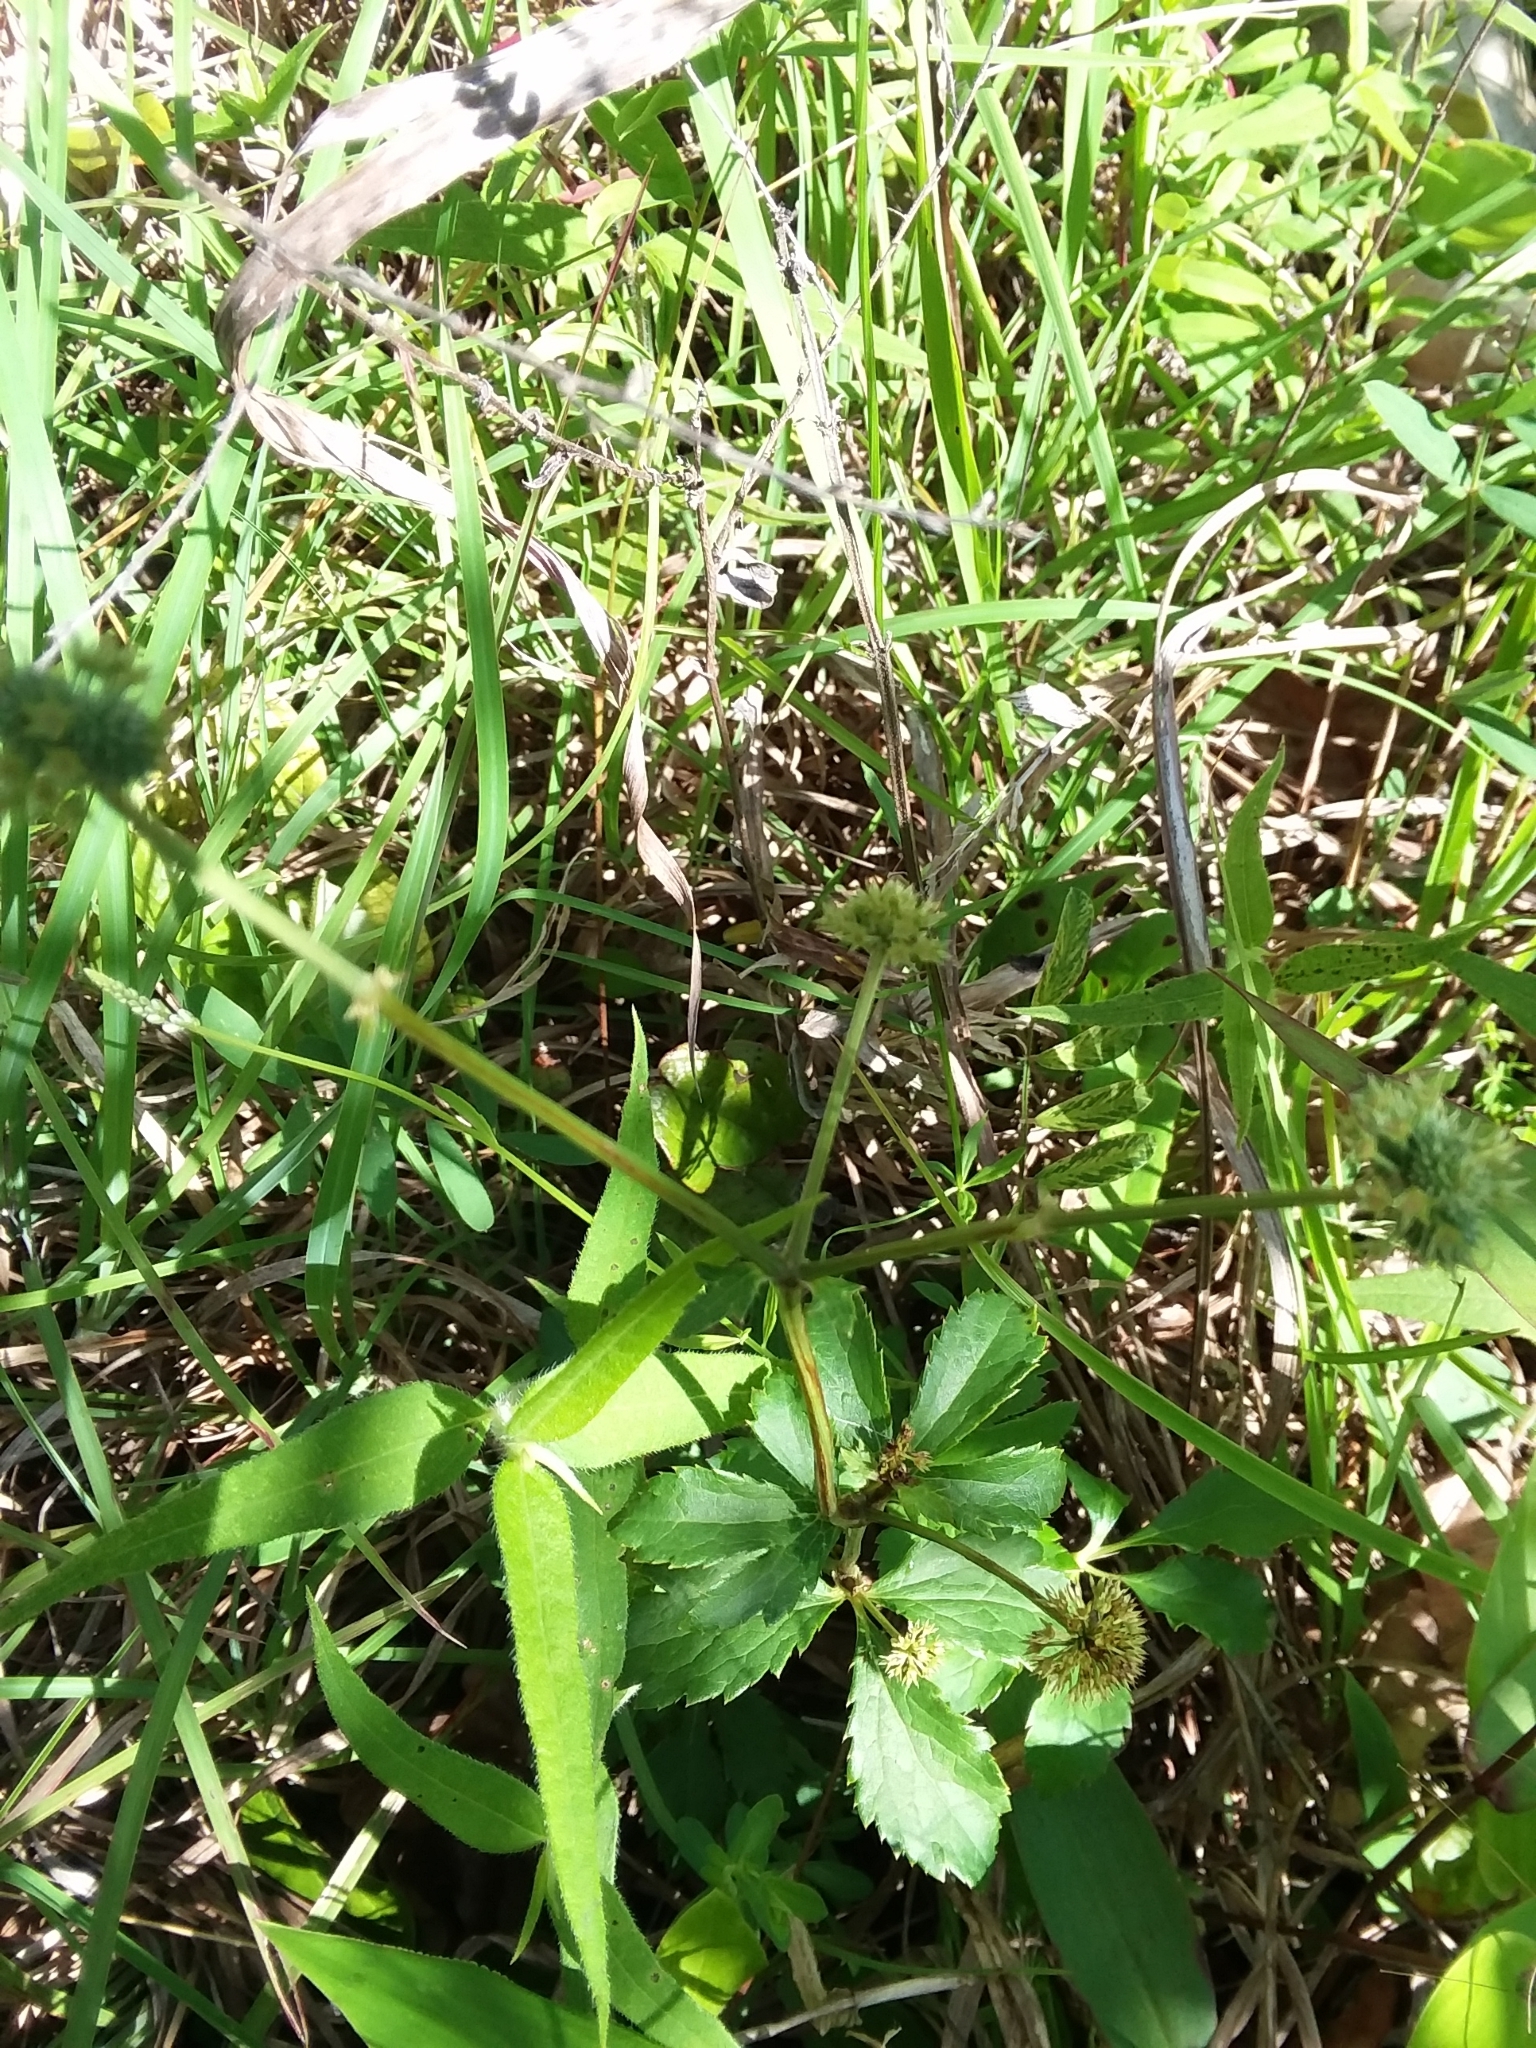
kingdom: Plantae
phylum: Tracheophyta
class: Magnoliopsida
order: Apiales
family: Apiaceae
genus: Sanicula
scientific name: Sanicula marilandica
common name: Black snakeroot
